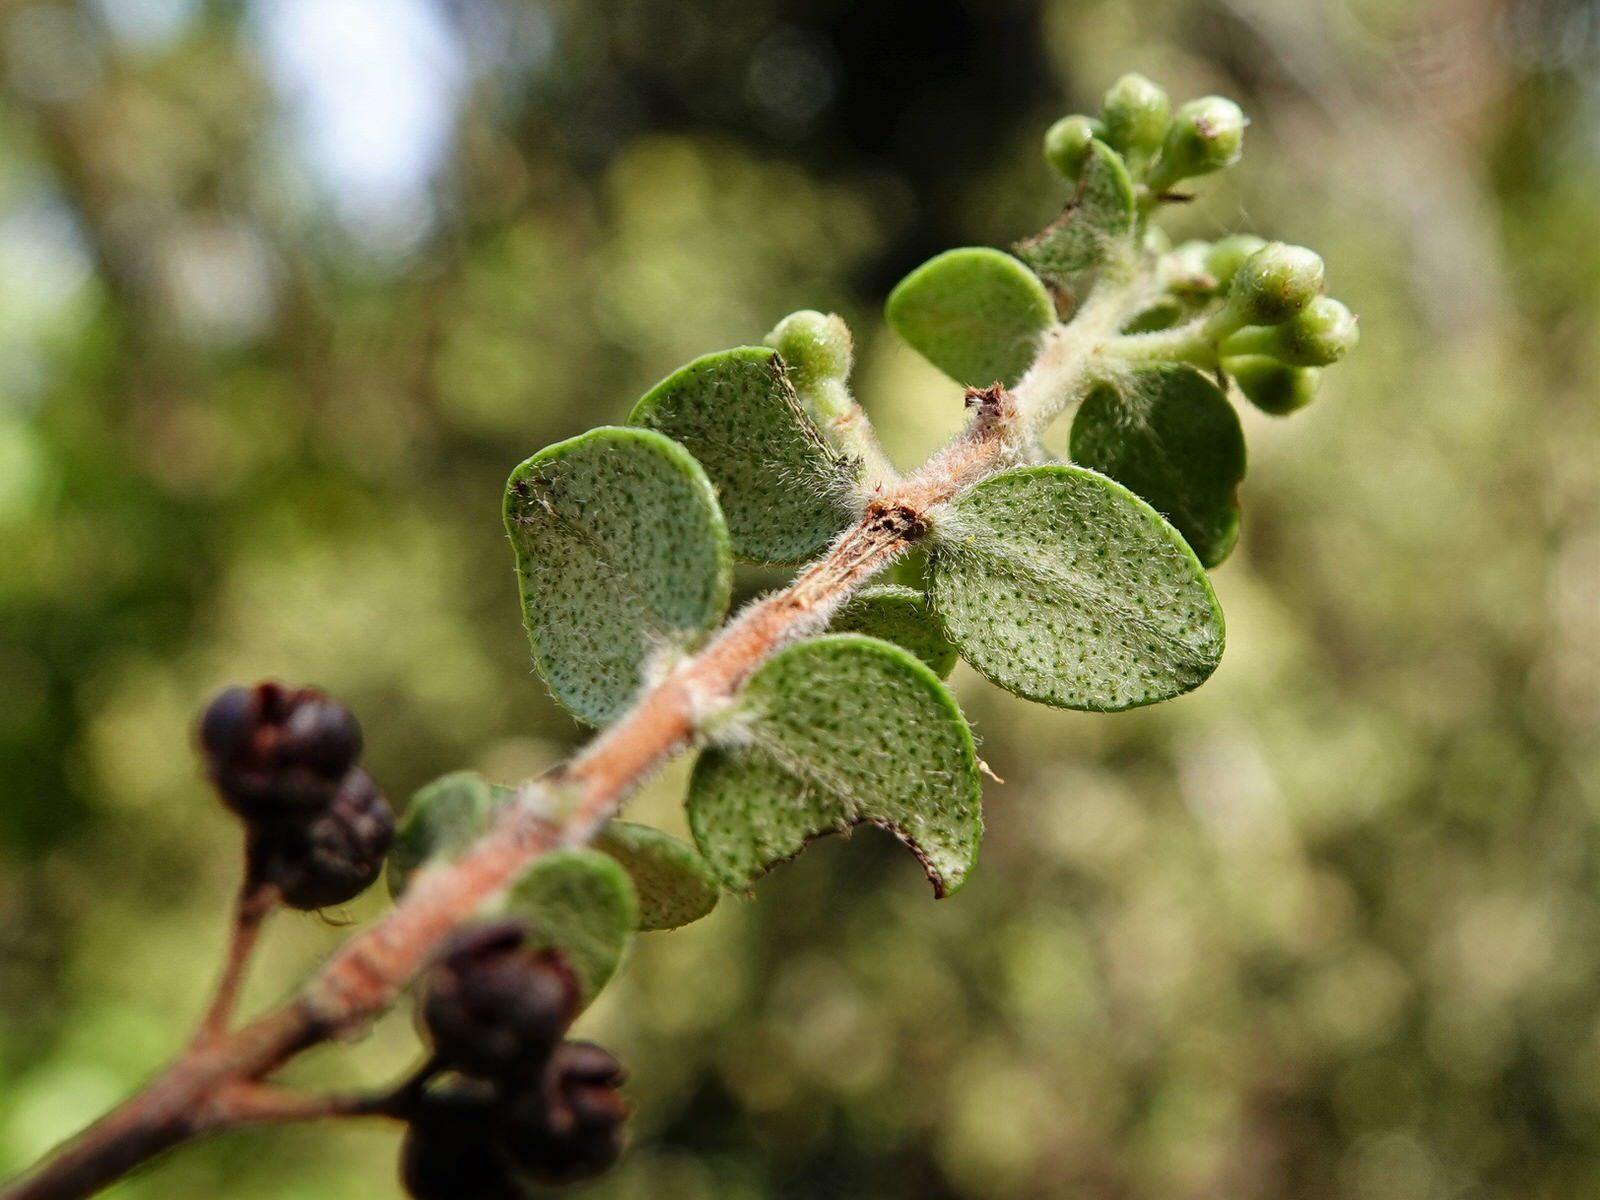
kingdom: Plantae
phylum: Tracheophyta
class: Magnoliopsida
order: Myrtales
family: Myrtaceae
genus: Metrosideros
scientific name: Metrosideros perforata
